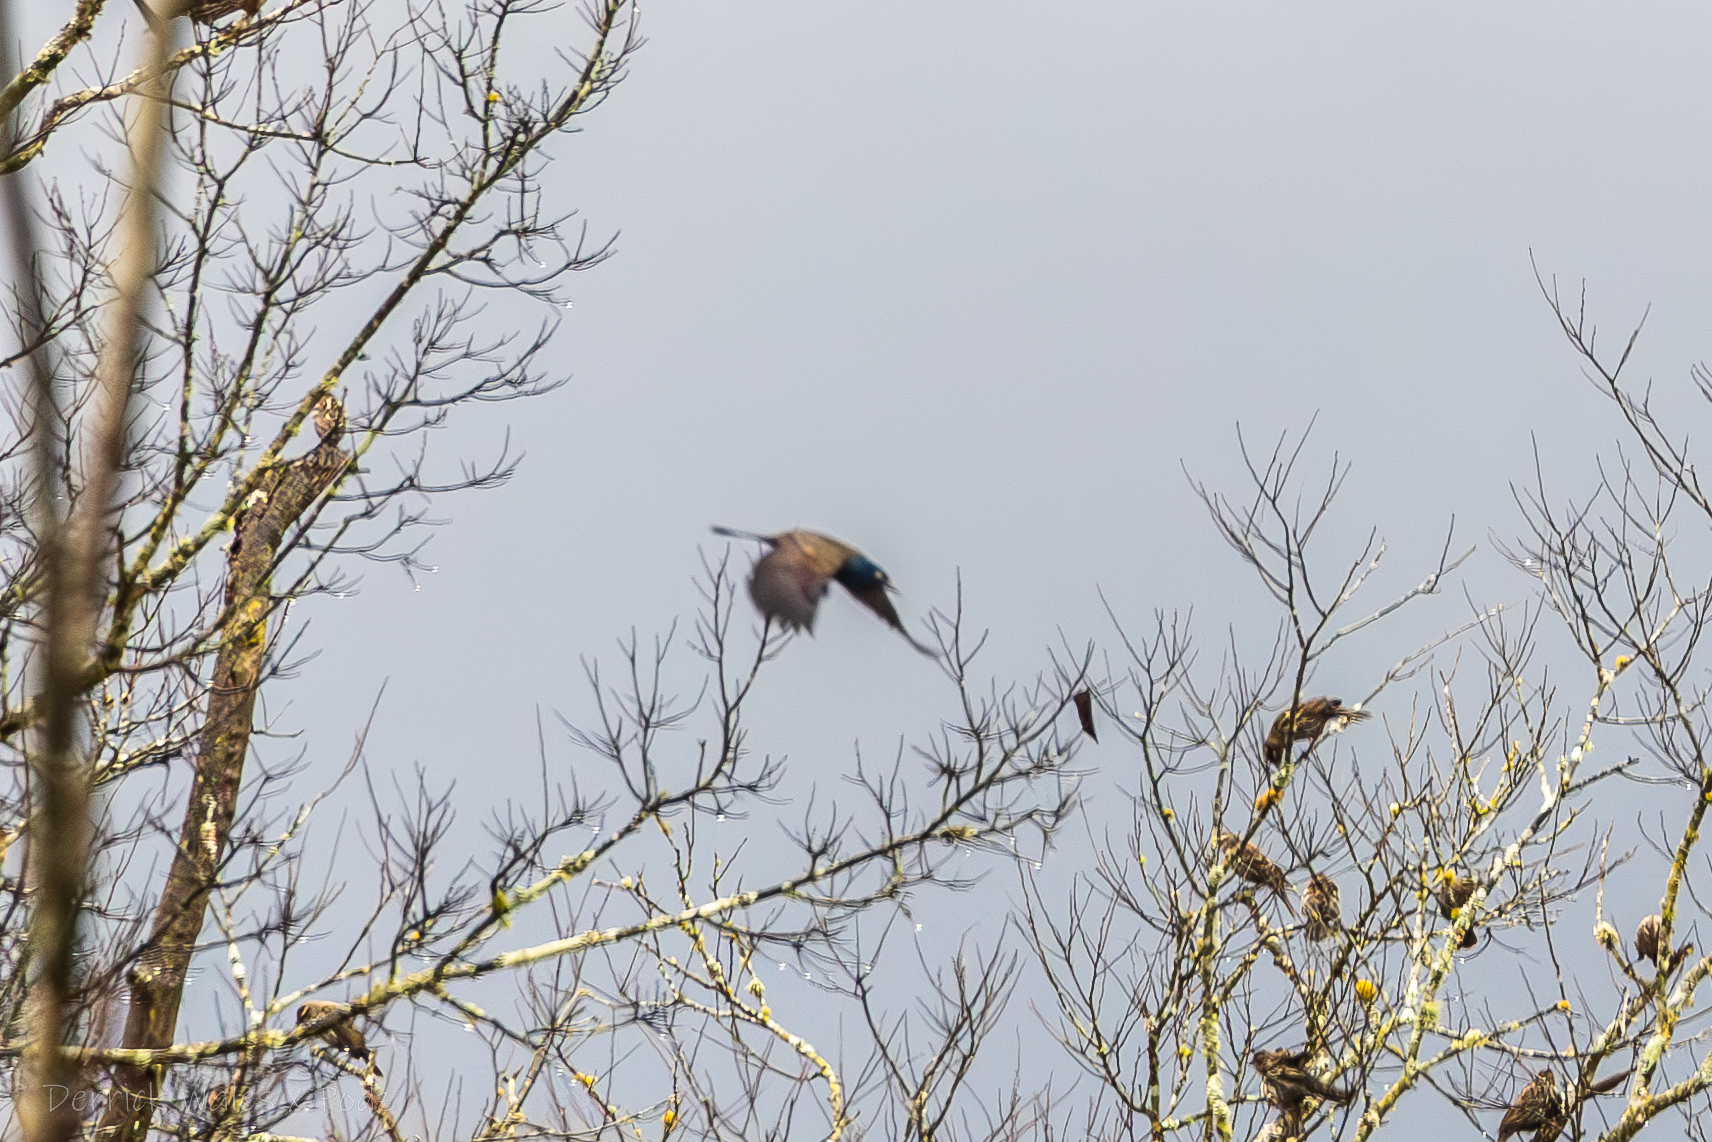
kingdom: Animalia
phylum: Chordata
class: Aves
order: Passeriformes
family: Icteridae
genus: Quiscalus
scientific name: Quiscalus quiscula
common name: Common grackle
